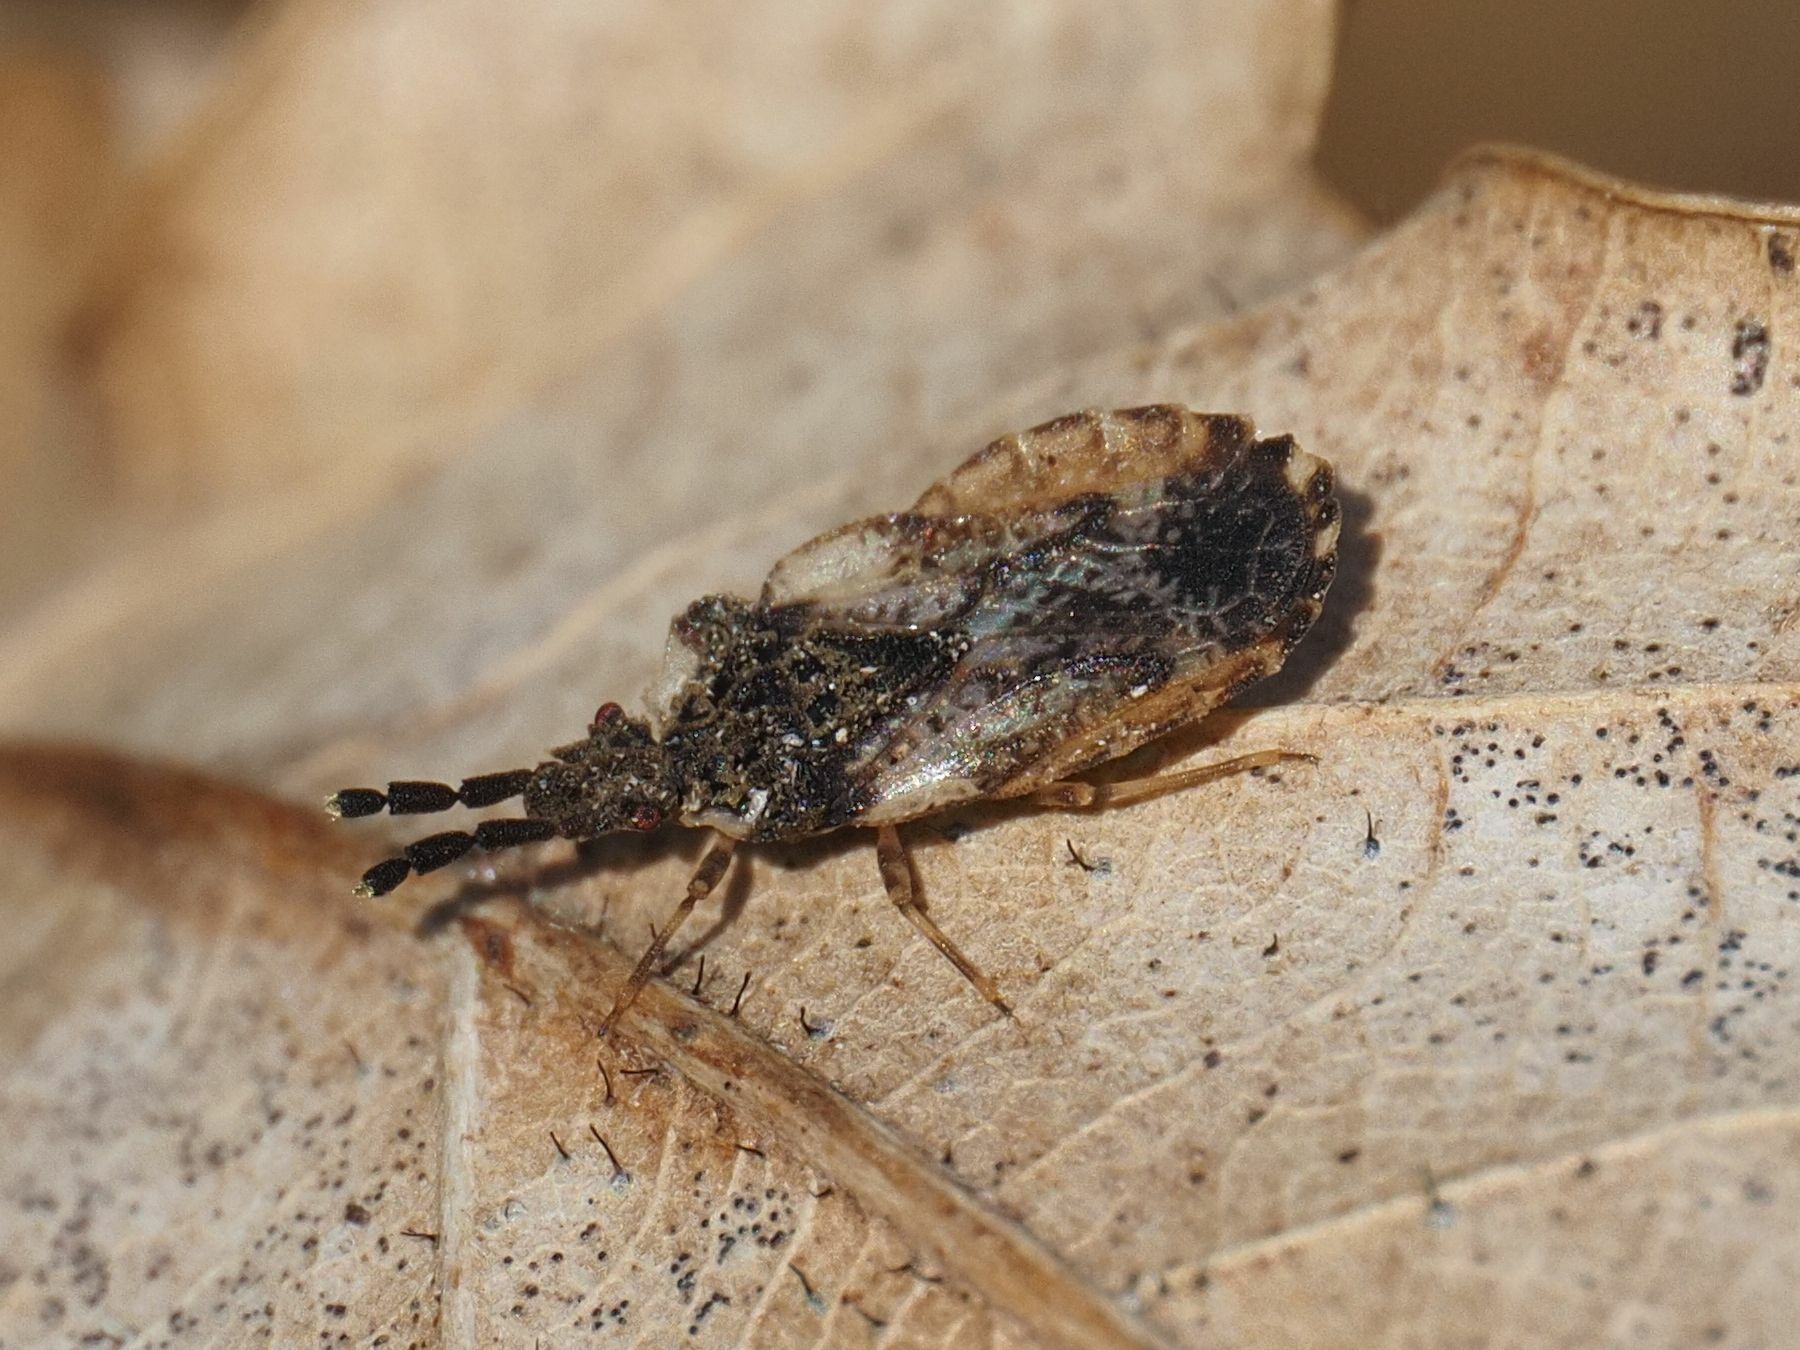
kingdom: Animalia
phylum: Arthropoda
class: Insecta
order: Hemiptera
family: Aradidae
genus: Aradus
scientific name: Aradus depressus
